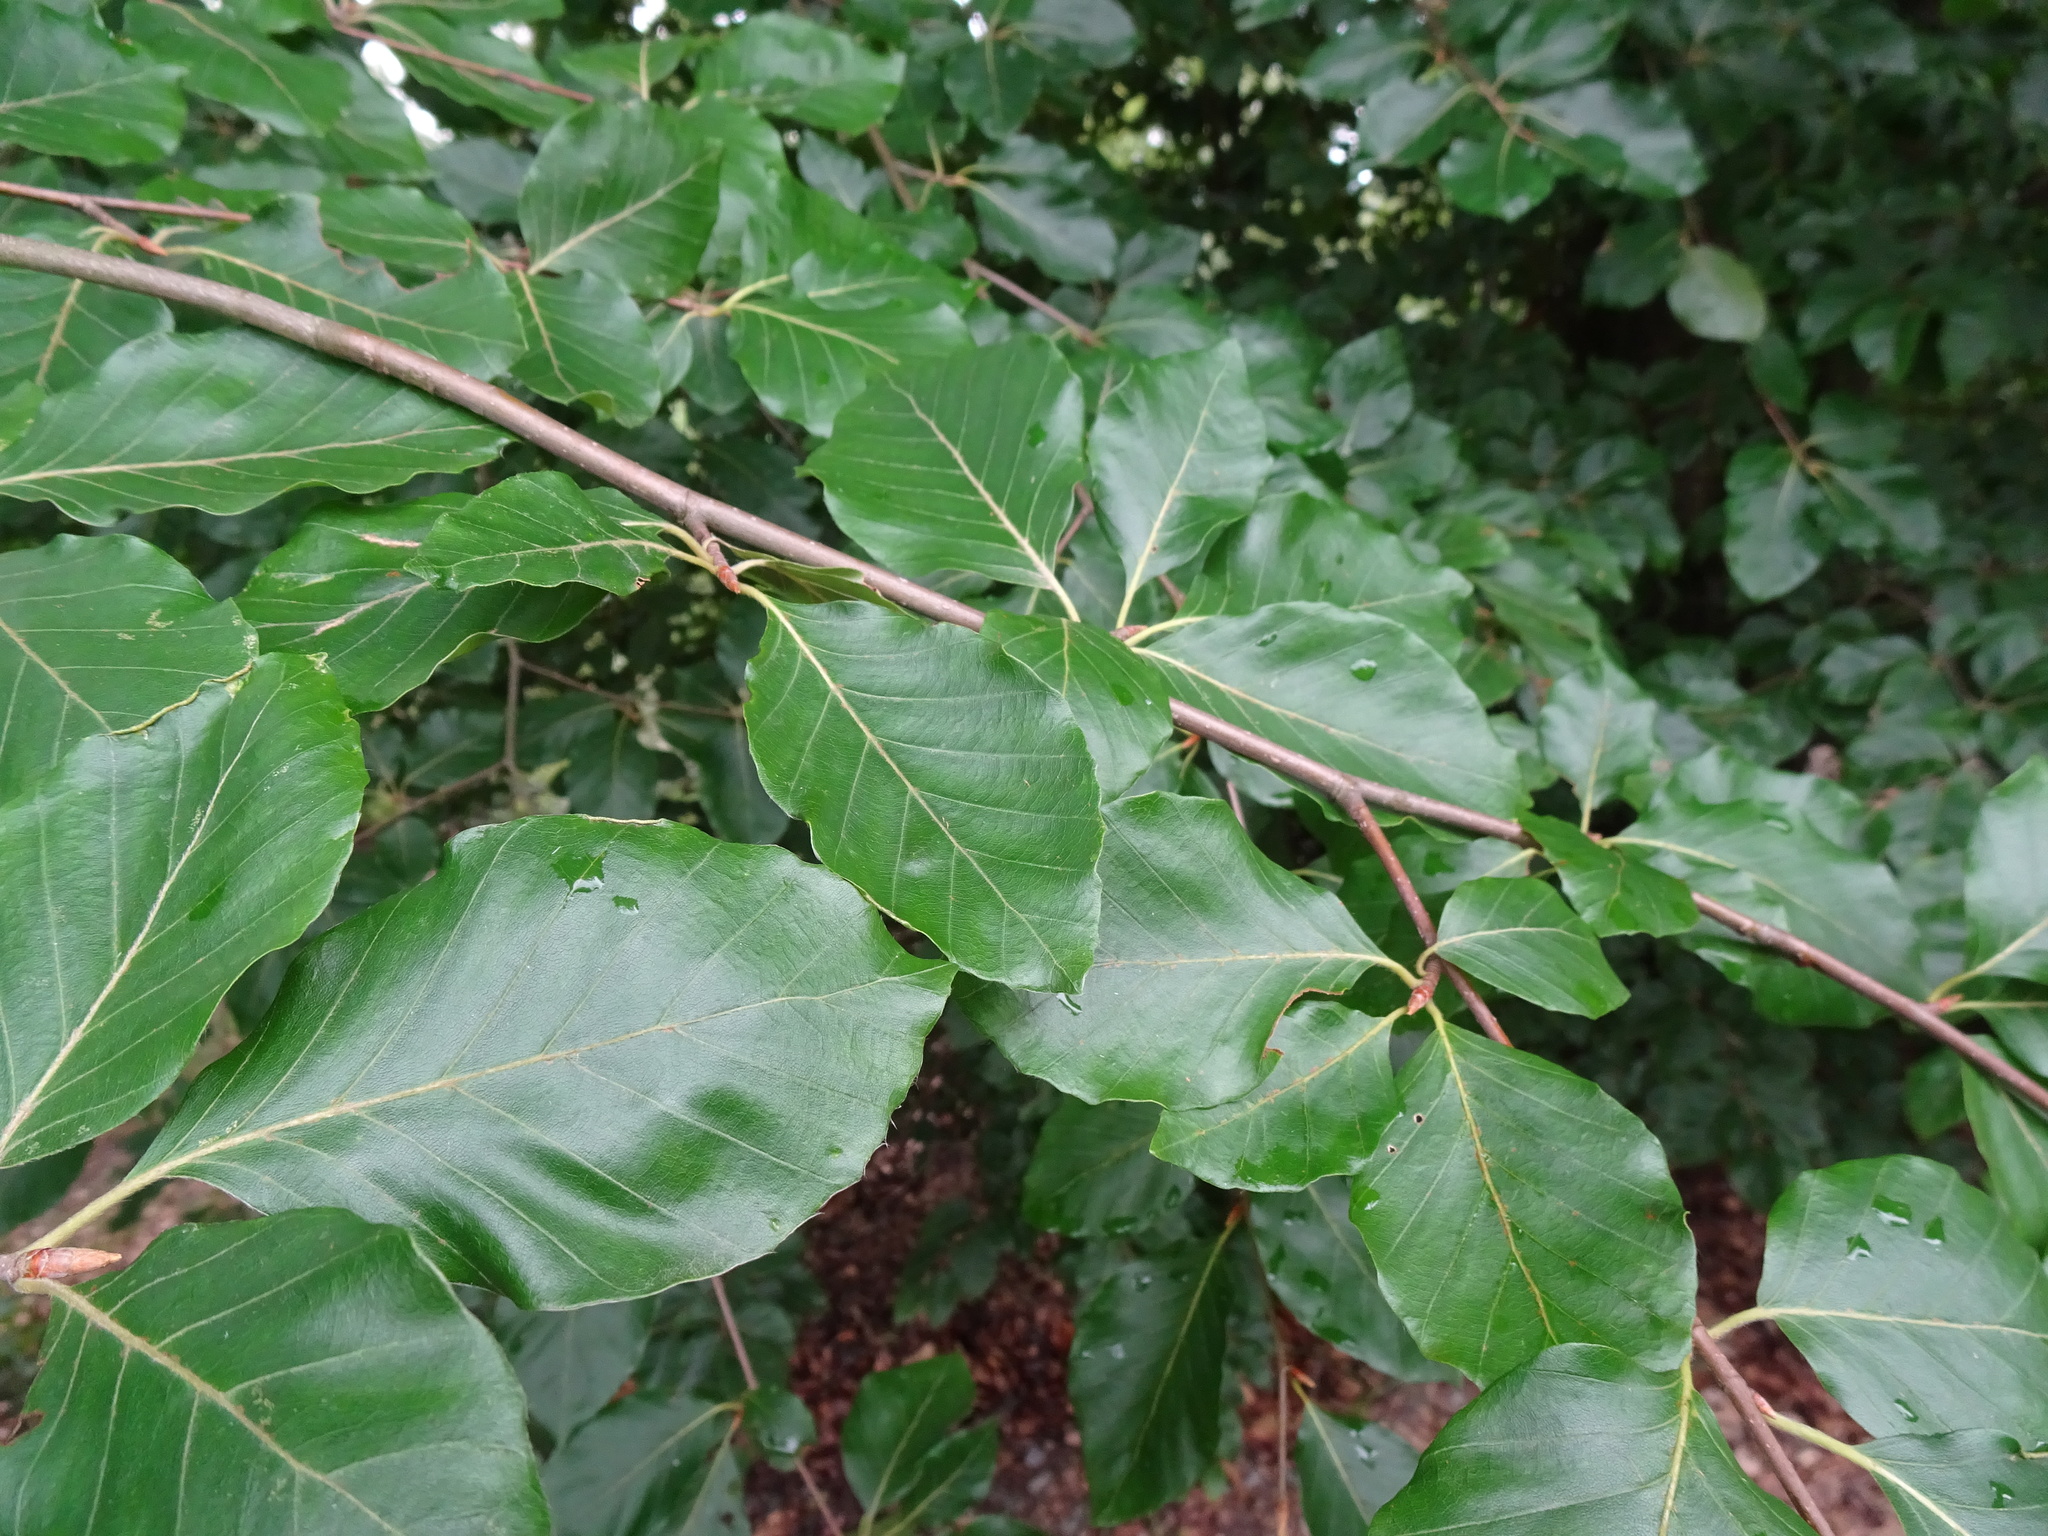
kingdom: Plantae
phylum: Tracheophyta
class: Magnoliopsida
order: Fagales
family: Fagaceae
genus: Fagus
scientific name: Fagus sylvatica
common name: Beech
